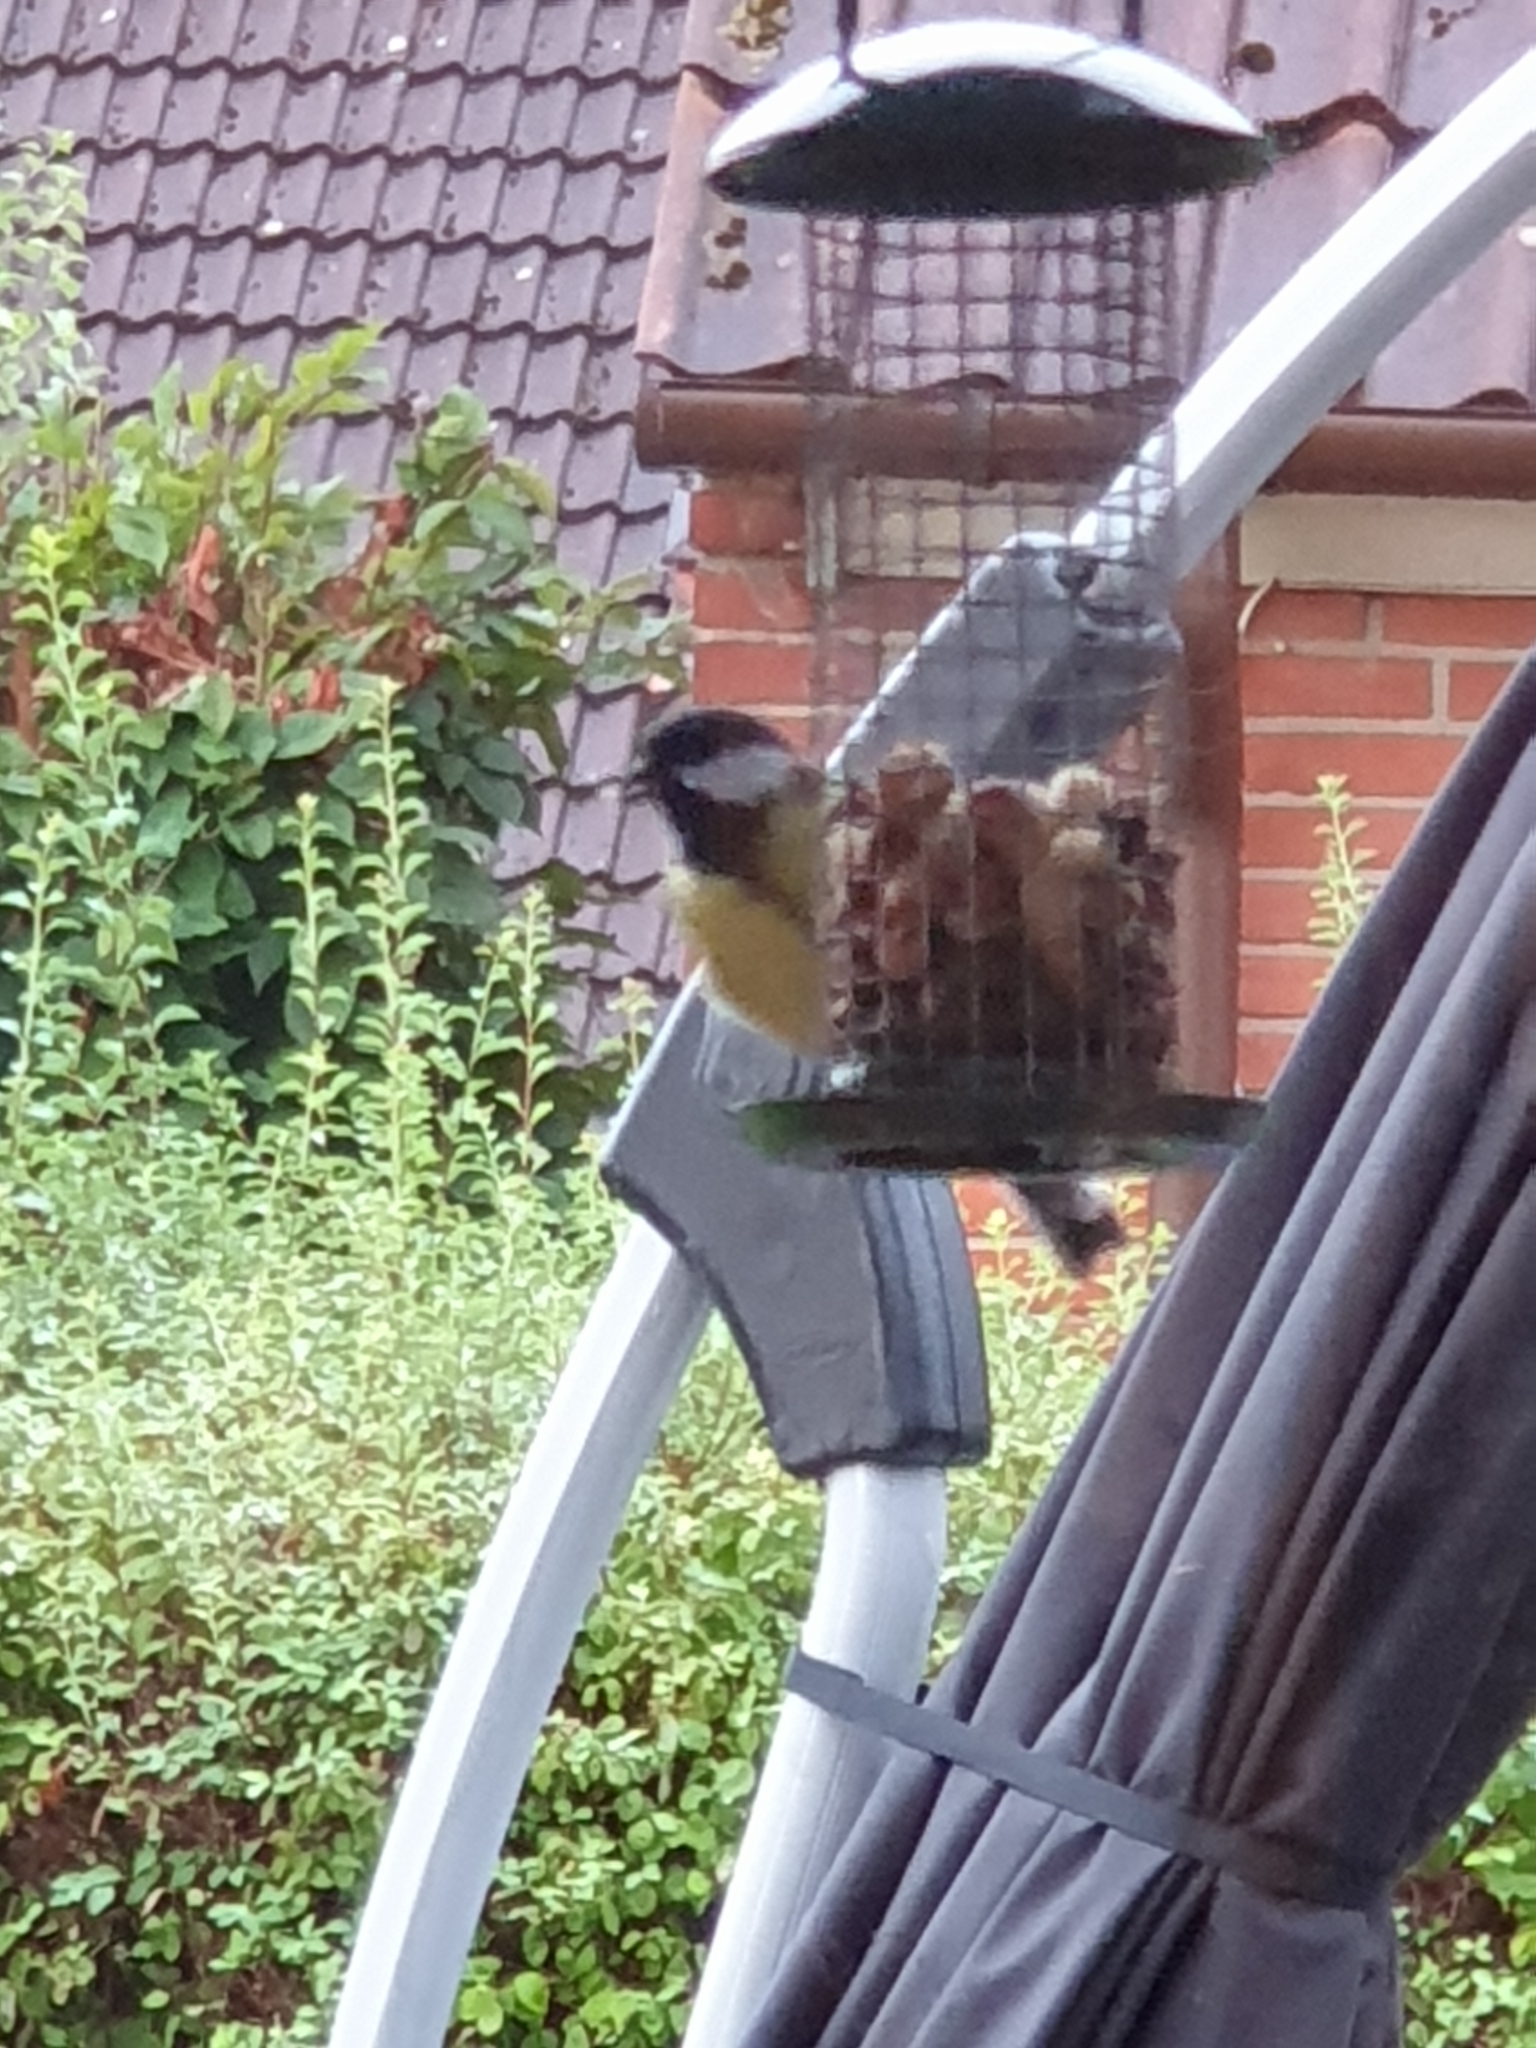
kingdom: Animalia
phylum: Chordata
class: Aves
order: Passeriformes
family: Paridae
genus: Parus
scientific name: Parus major
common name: Great tit
